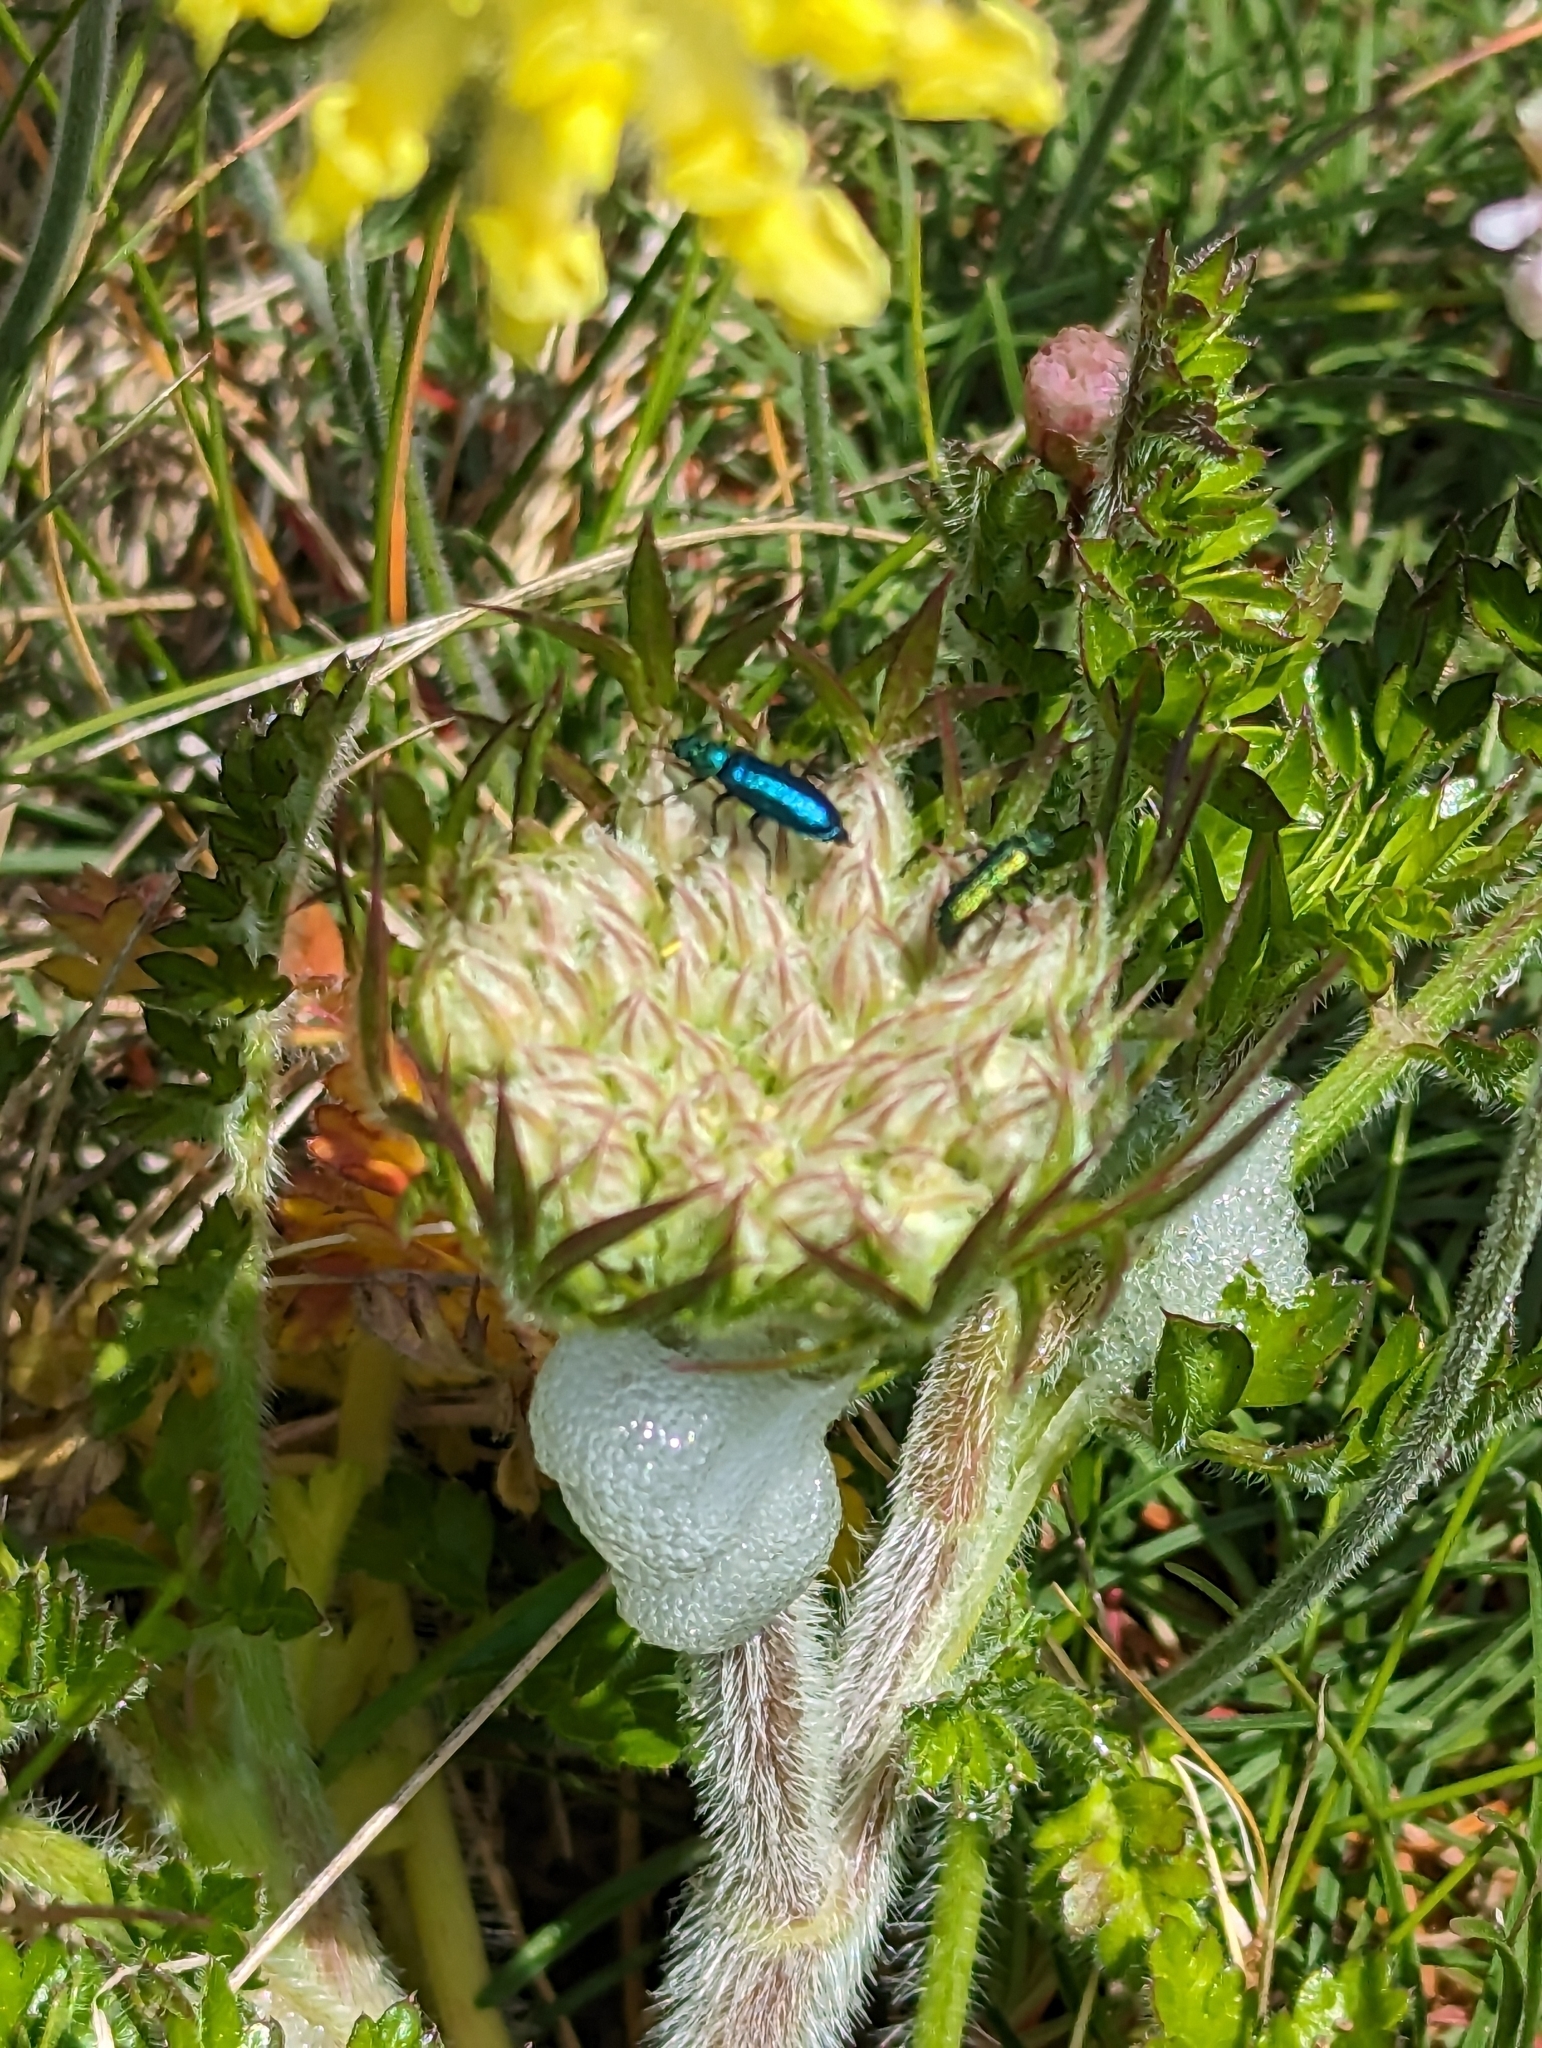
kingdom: Animalia
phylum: Arthropoda
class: Insecta
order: Coleoptera
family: Dasytidae
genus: Psilothrix
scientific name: Psilothrix viridicoerulea
